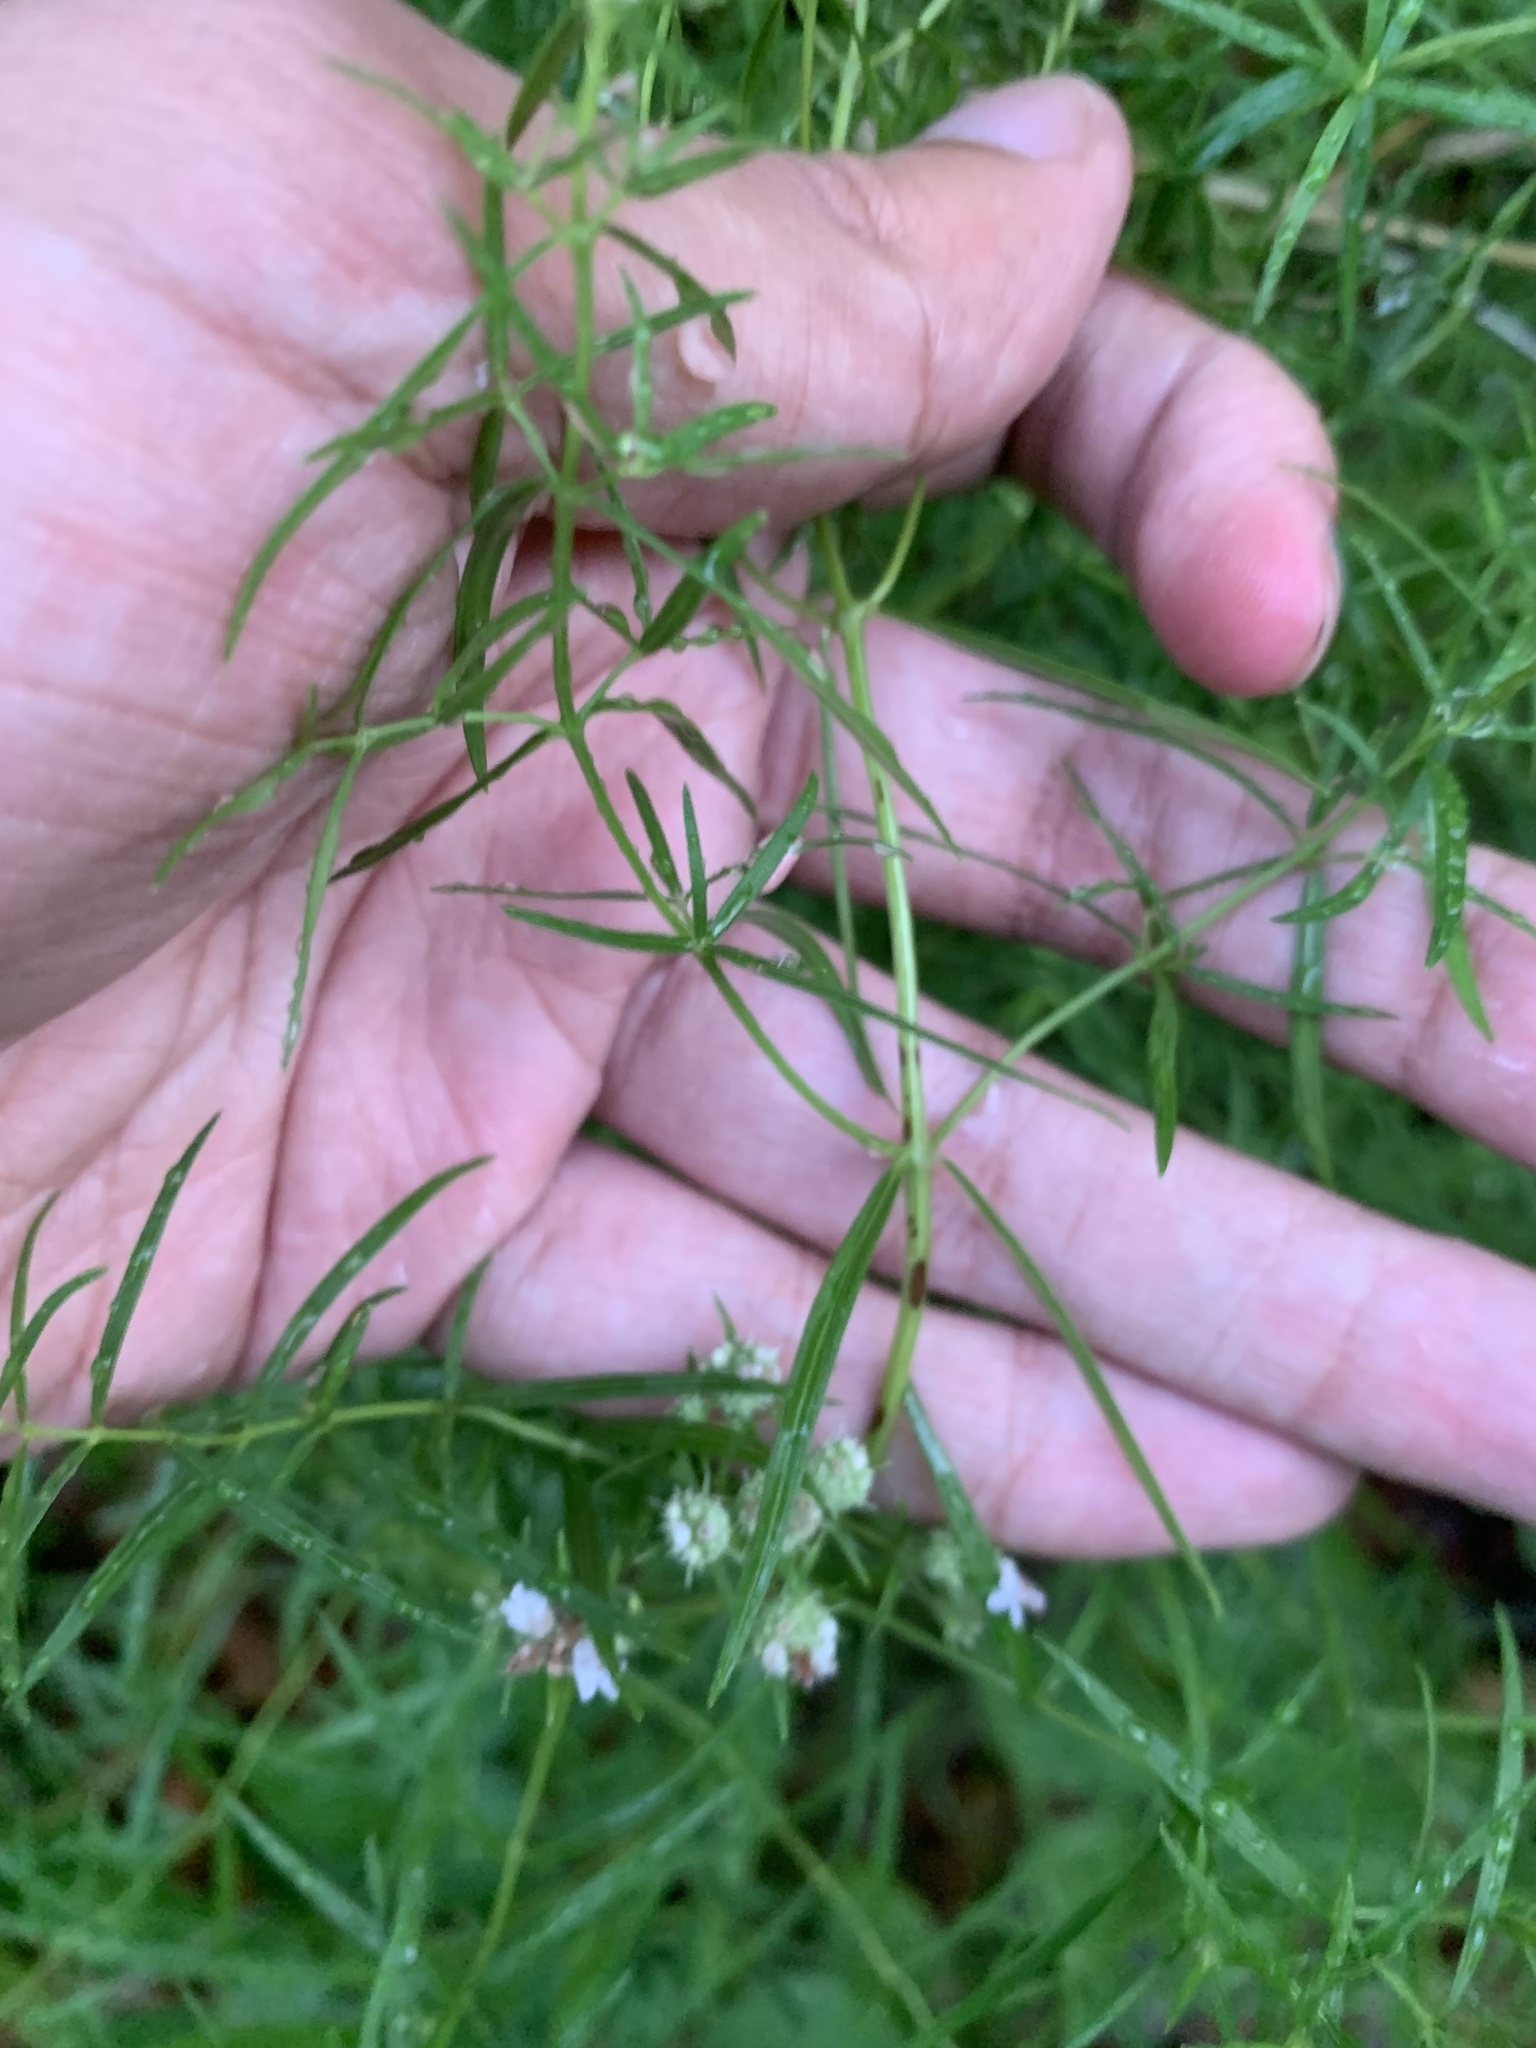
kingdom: Plantae
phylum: Tracheophyta
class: Magnoliopsida
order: Lamiales
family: Lamiaceae
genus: Pycnanthemum
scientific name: Pycnanthemum tenuifolium
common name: Narrow-leaf mountain-mint
